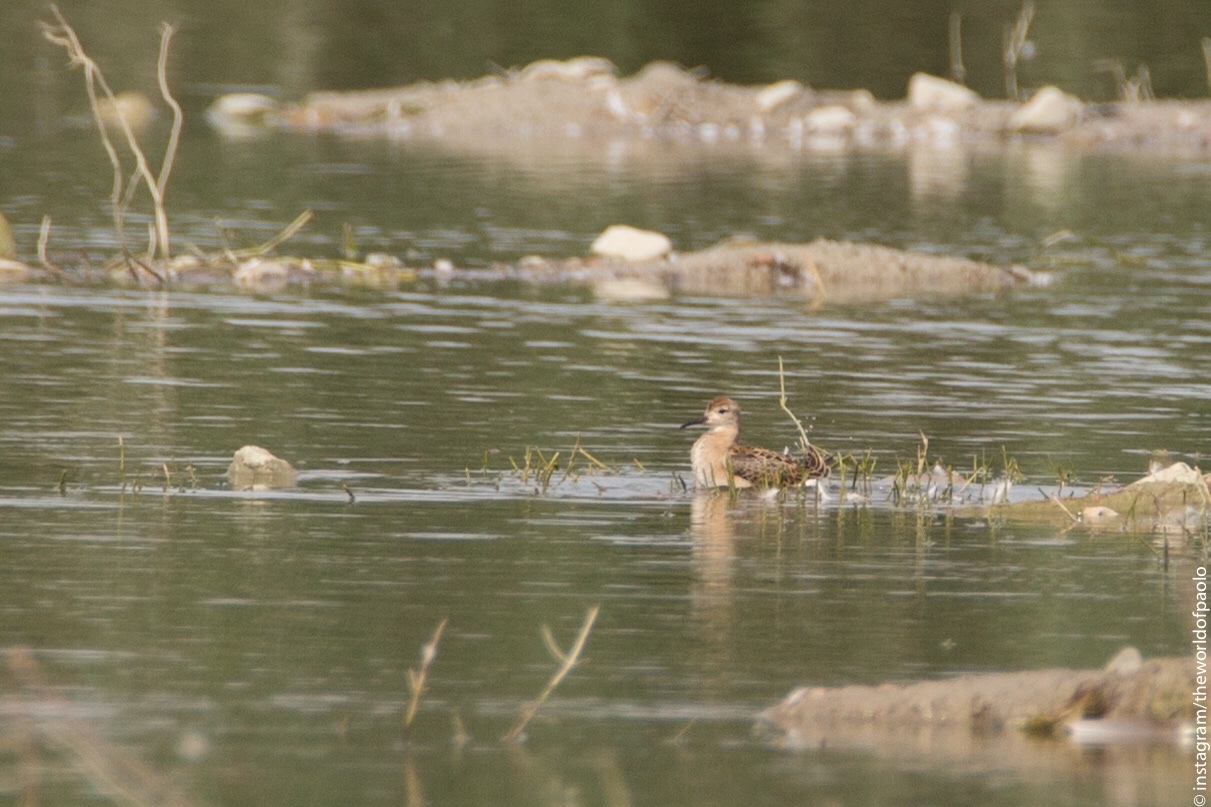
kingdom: Animalia
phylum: Chordata
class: Aves
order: Charadriiformes
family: Scolopacidae
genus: Calidris
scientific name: Calidris pugnax
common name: Ruff
